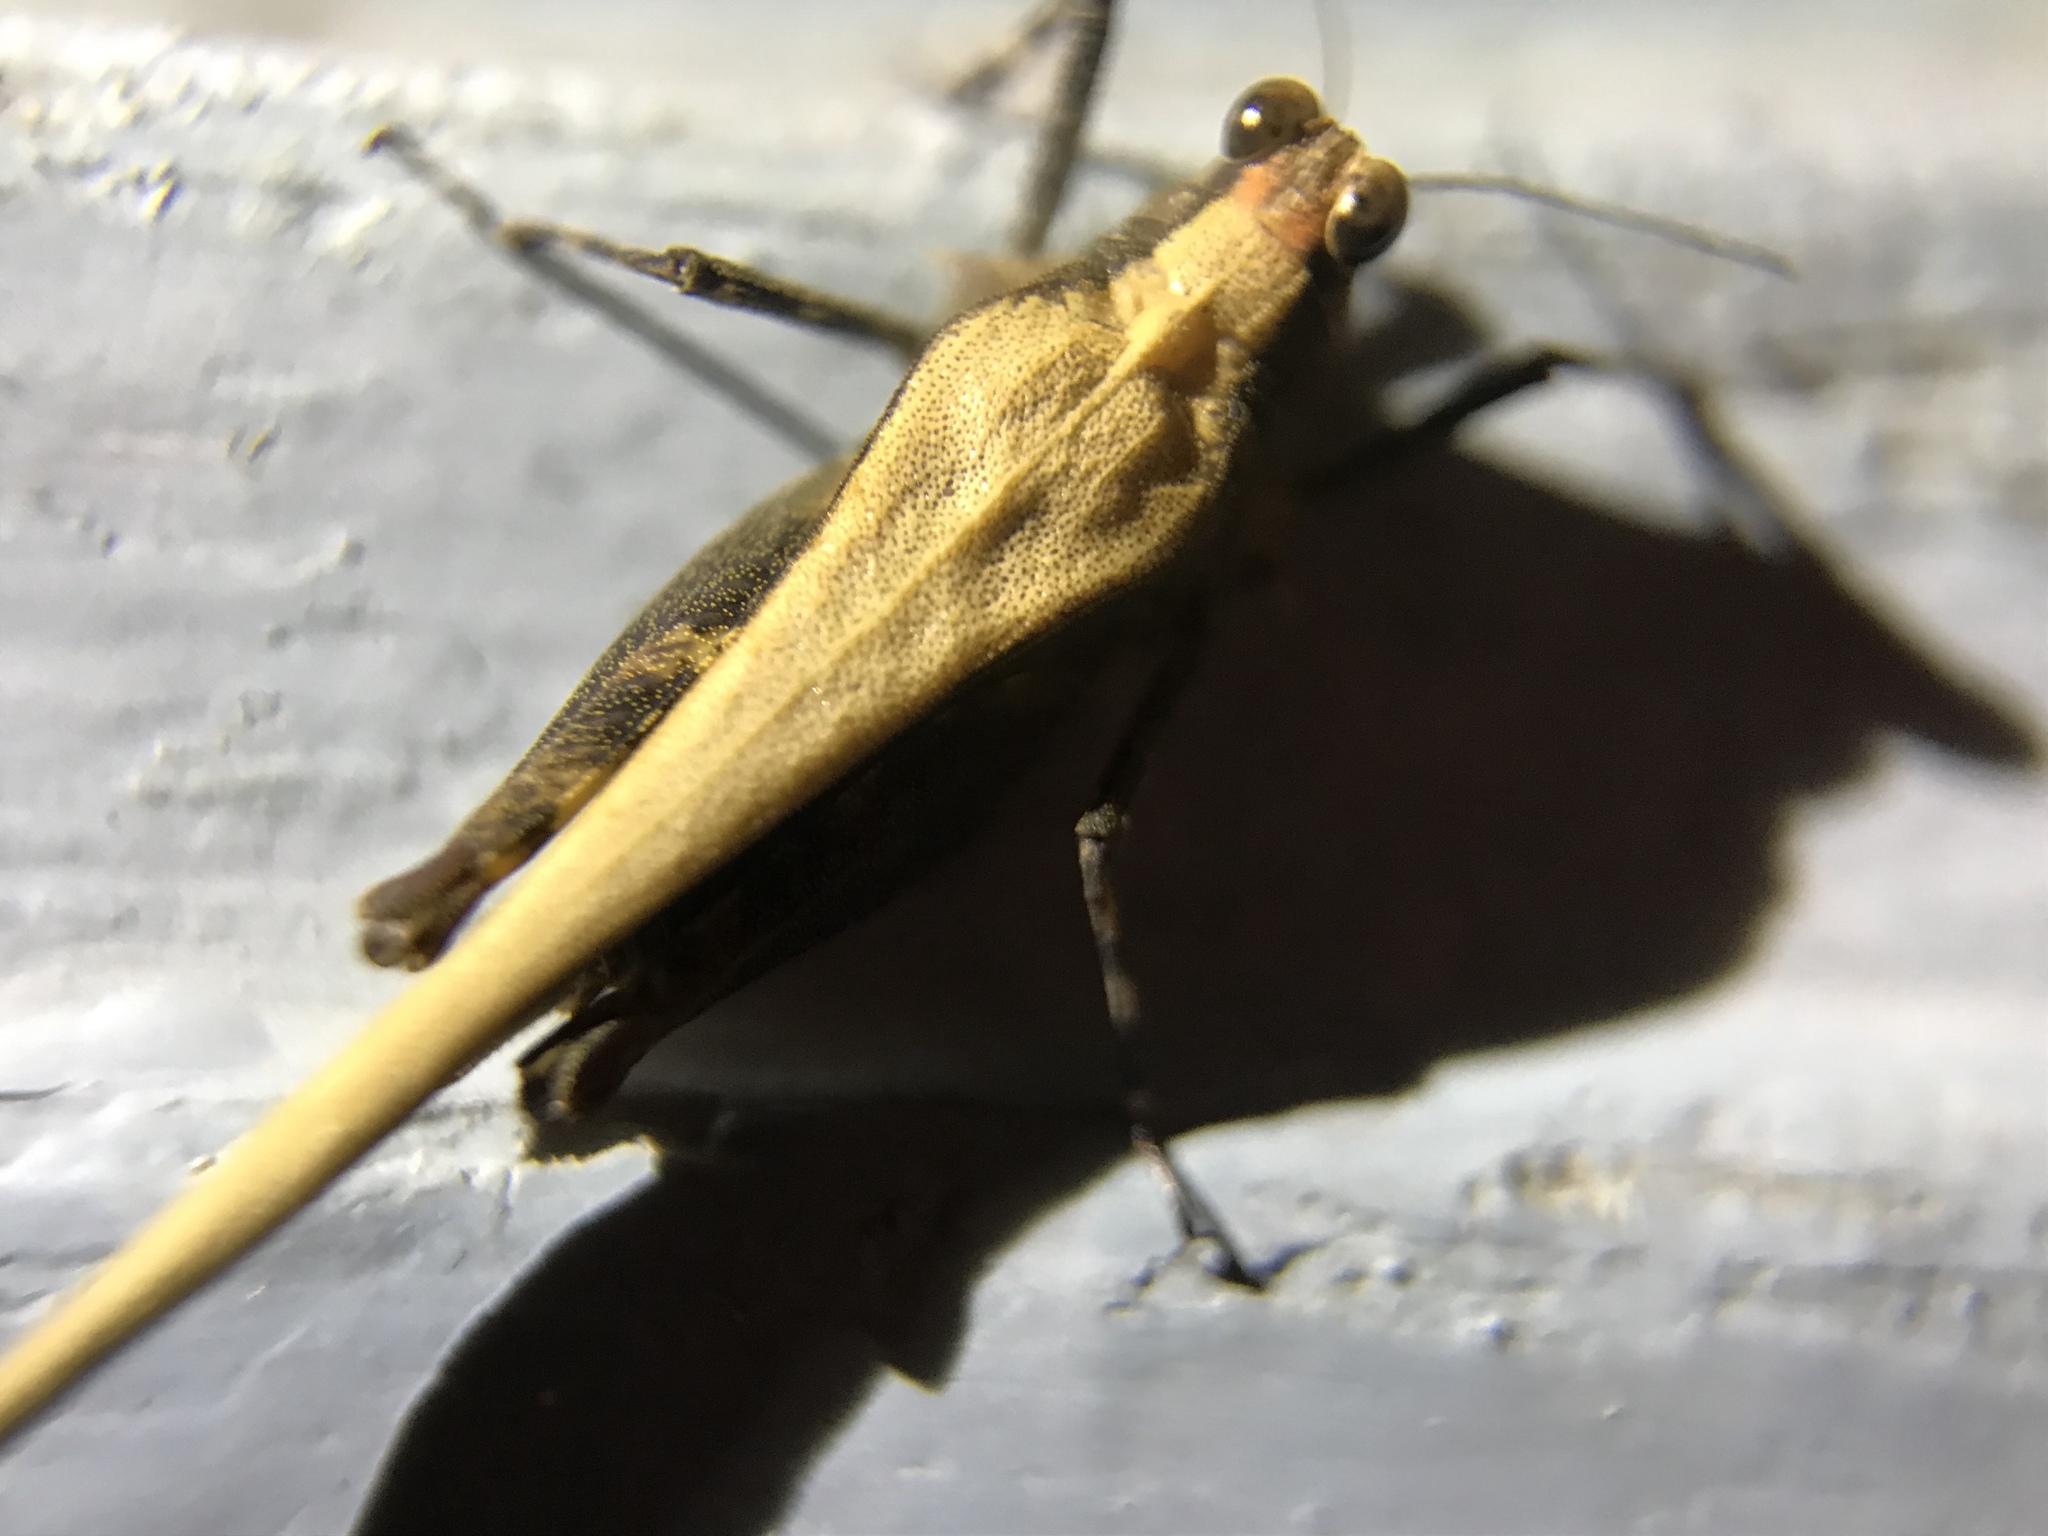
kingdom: Animalia
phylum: Arthropoda
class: Insecta
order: Orthoptera
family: Tetrigidae
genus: Criotettix
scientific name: Criotettix bispinosus
